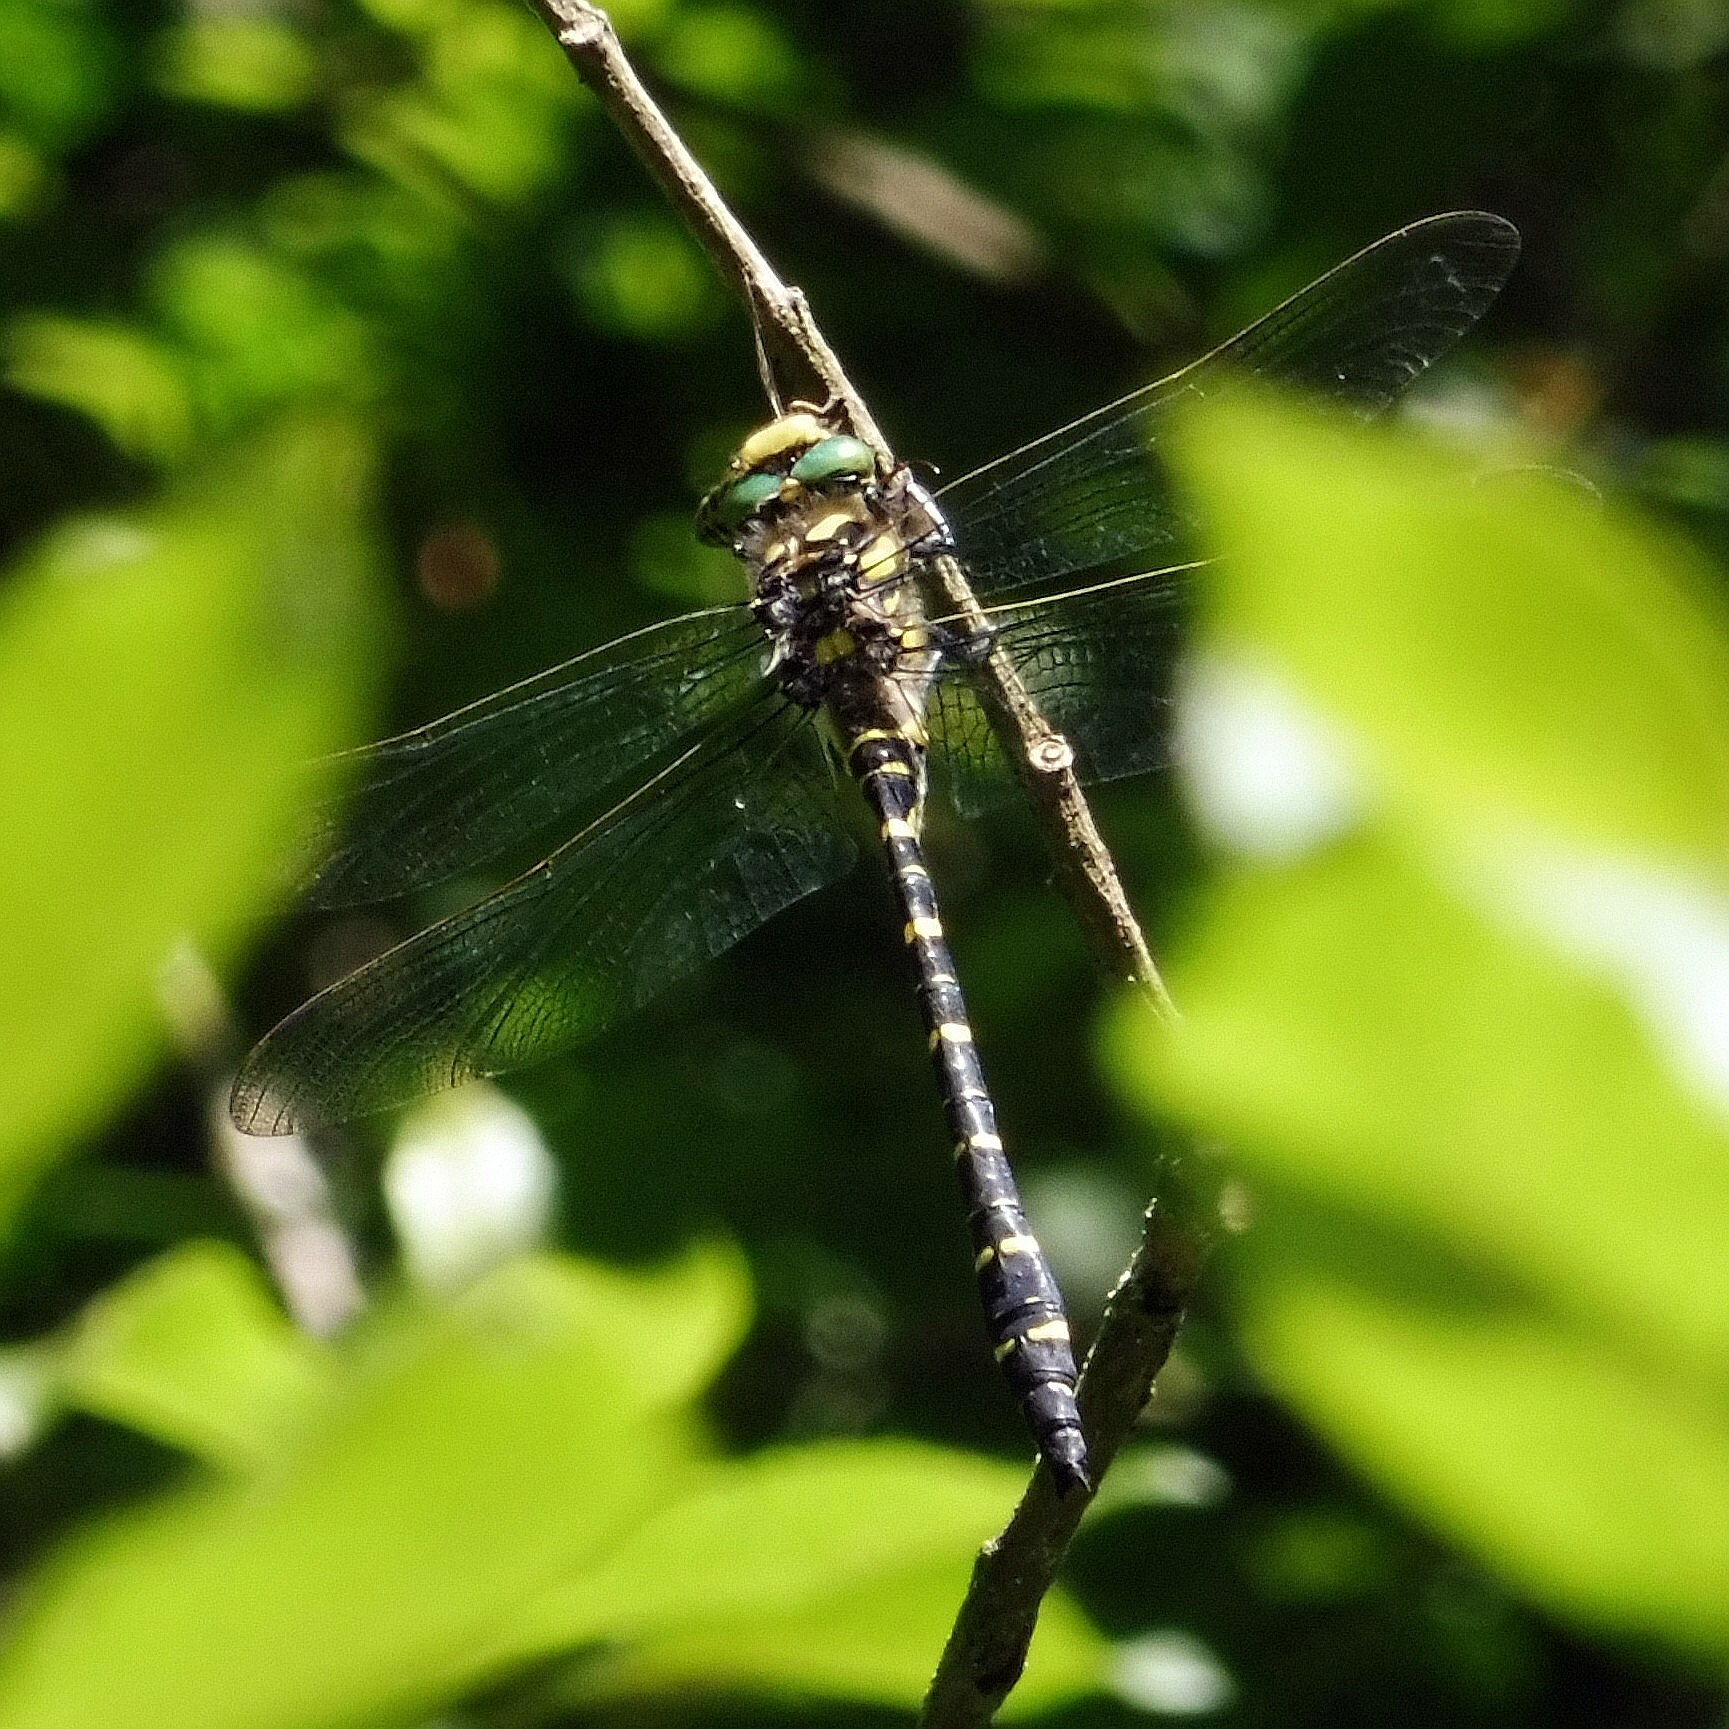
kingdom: Animalia
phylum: Arthropoda
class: Insecta
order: Odonata
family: Cordulegastridae
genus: Cordulegaster
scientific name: Cordulegaster boltonii
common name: Golden-ringed dragonfly
